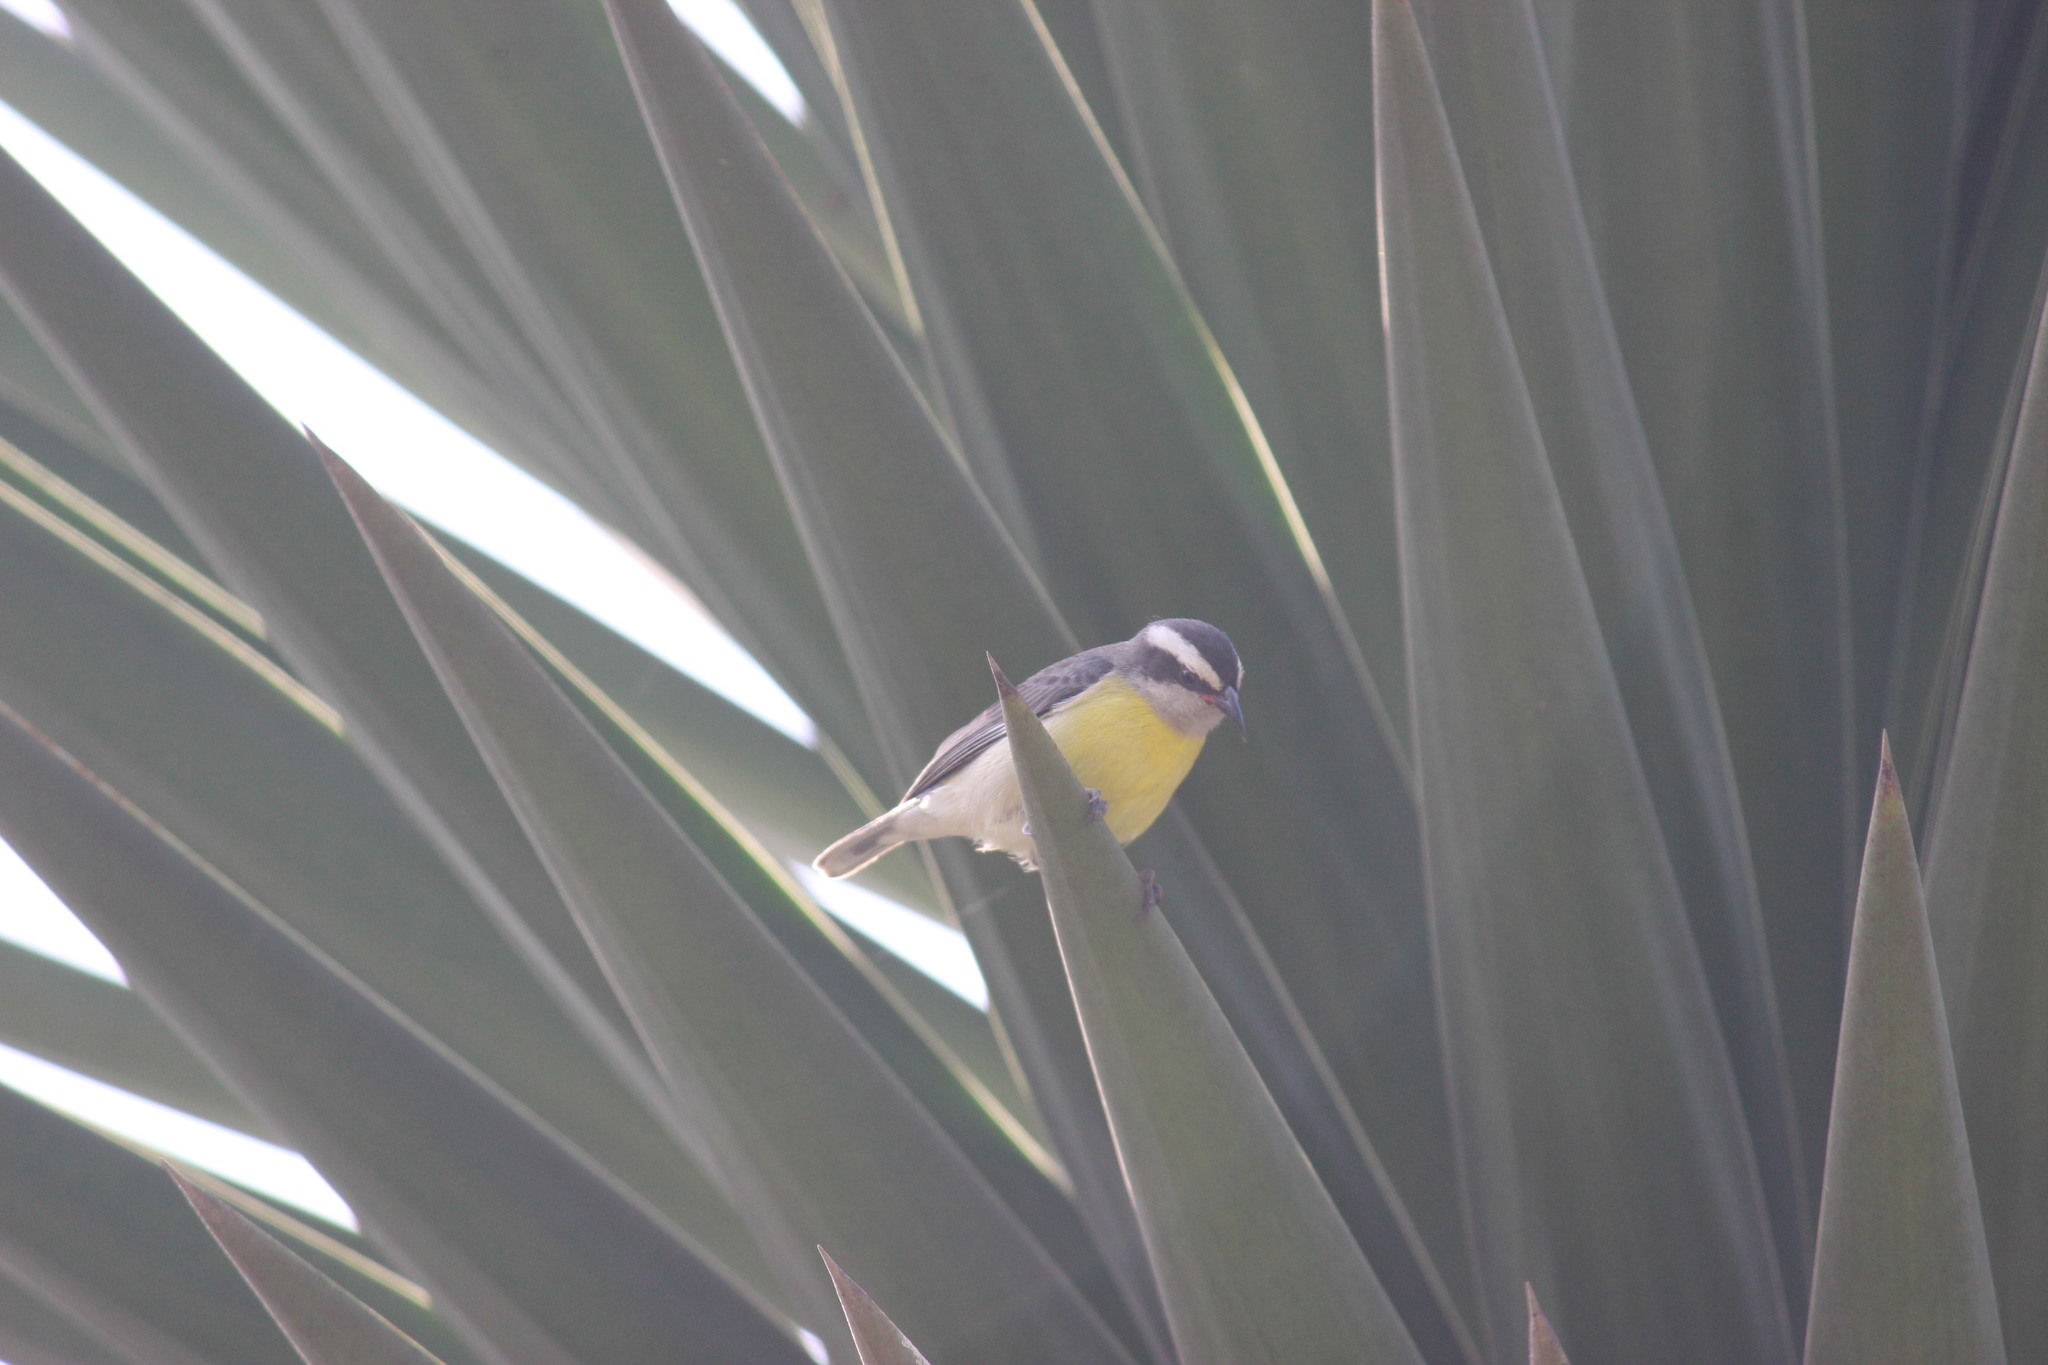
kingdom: Animalia
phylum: Chordata
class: Aves
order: Passeriformes
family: Thraupidae
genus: Coereba
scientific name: Coereba flaveola
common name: Bananaquit
